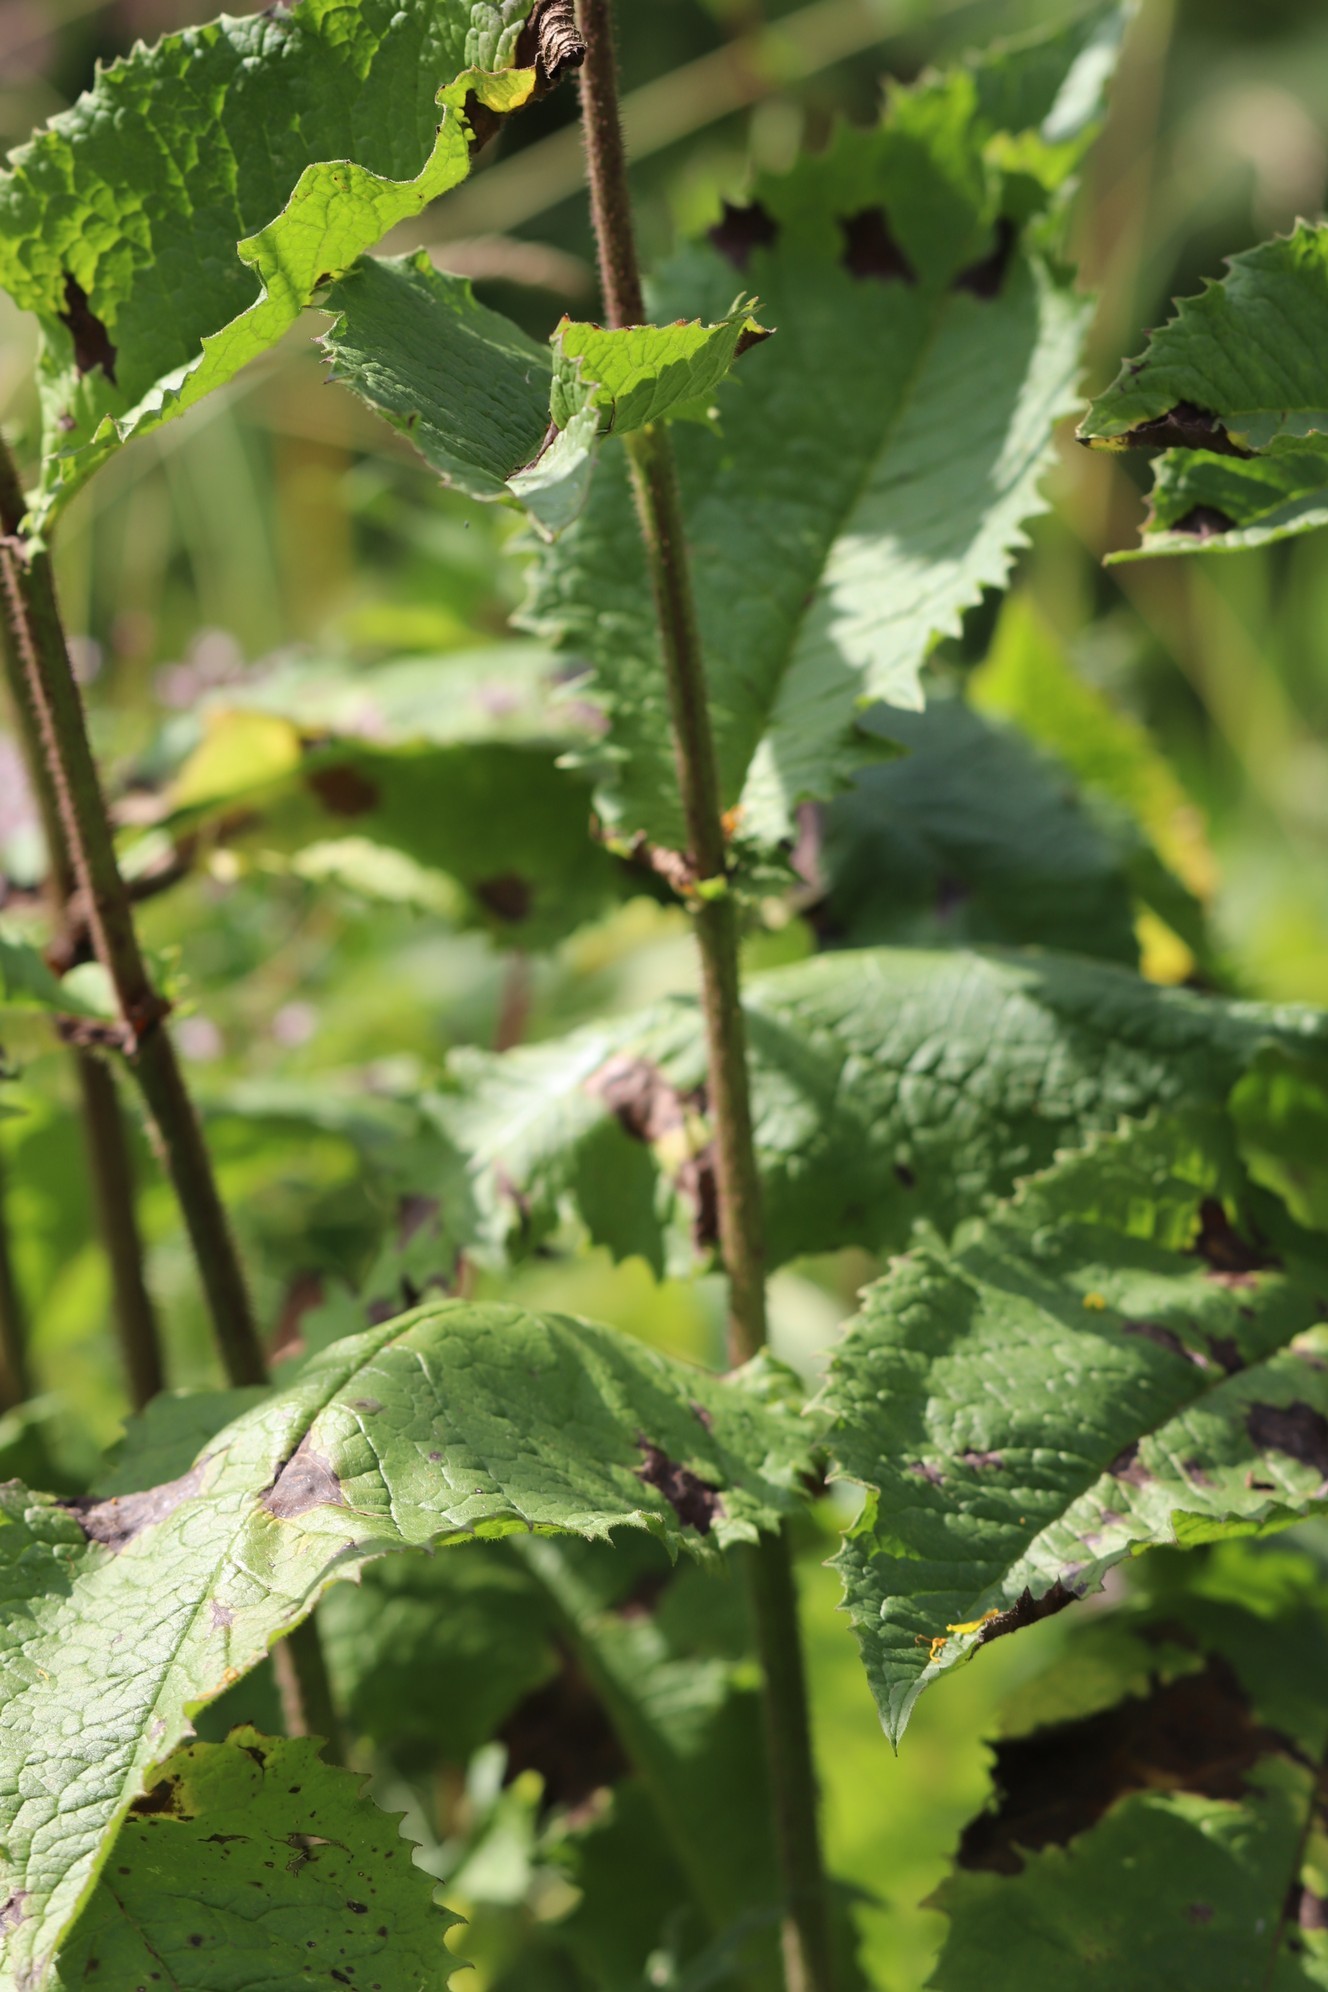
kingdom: Plantae
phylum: Tracheophyta
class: Magnoliopsida
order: Asterales
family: Asteraceae
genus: Crepis
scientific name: Crepis sibirica
